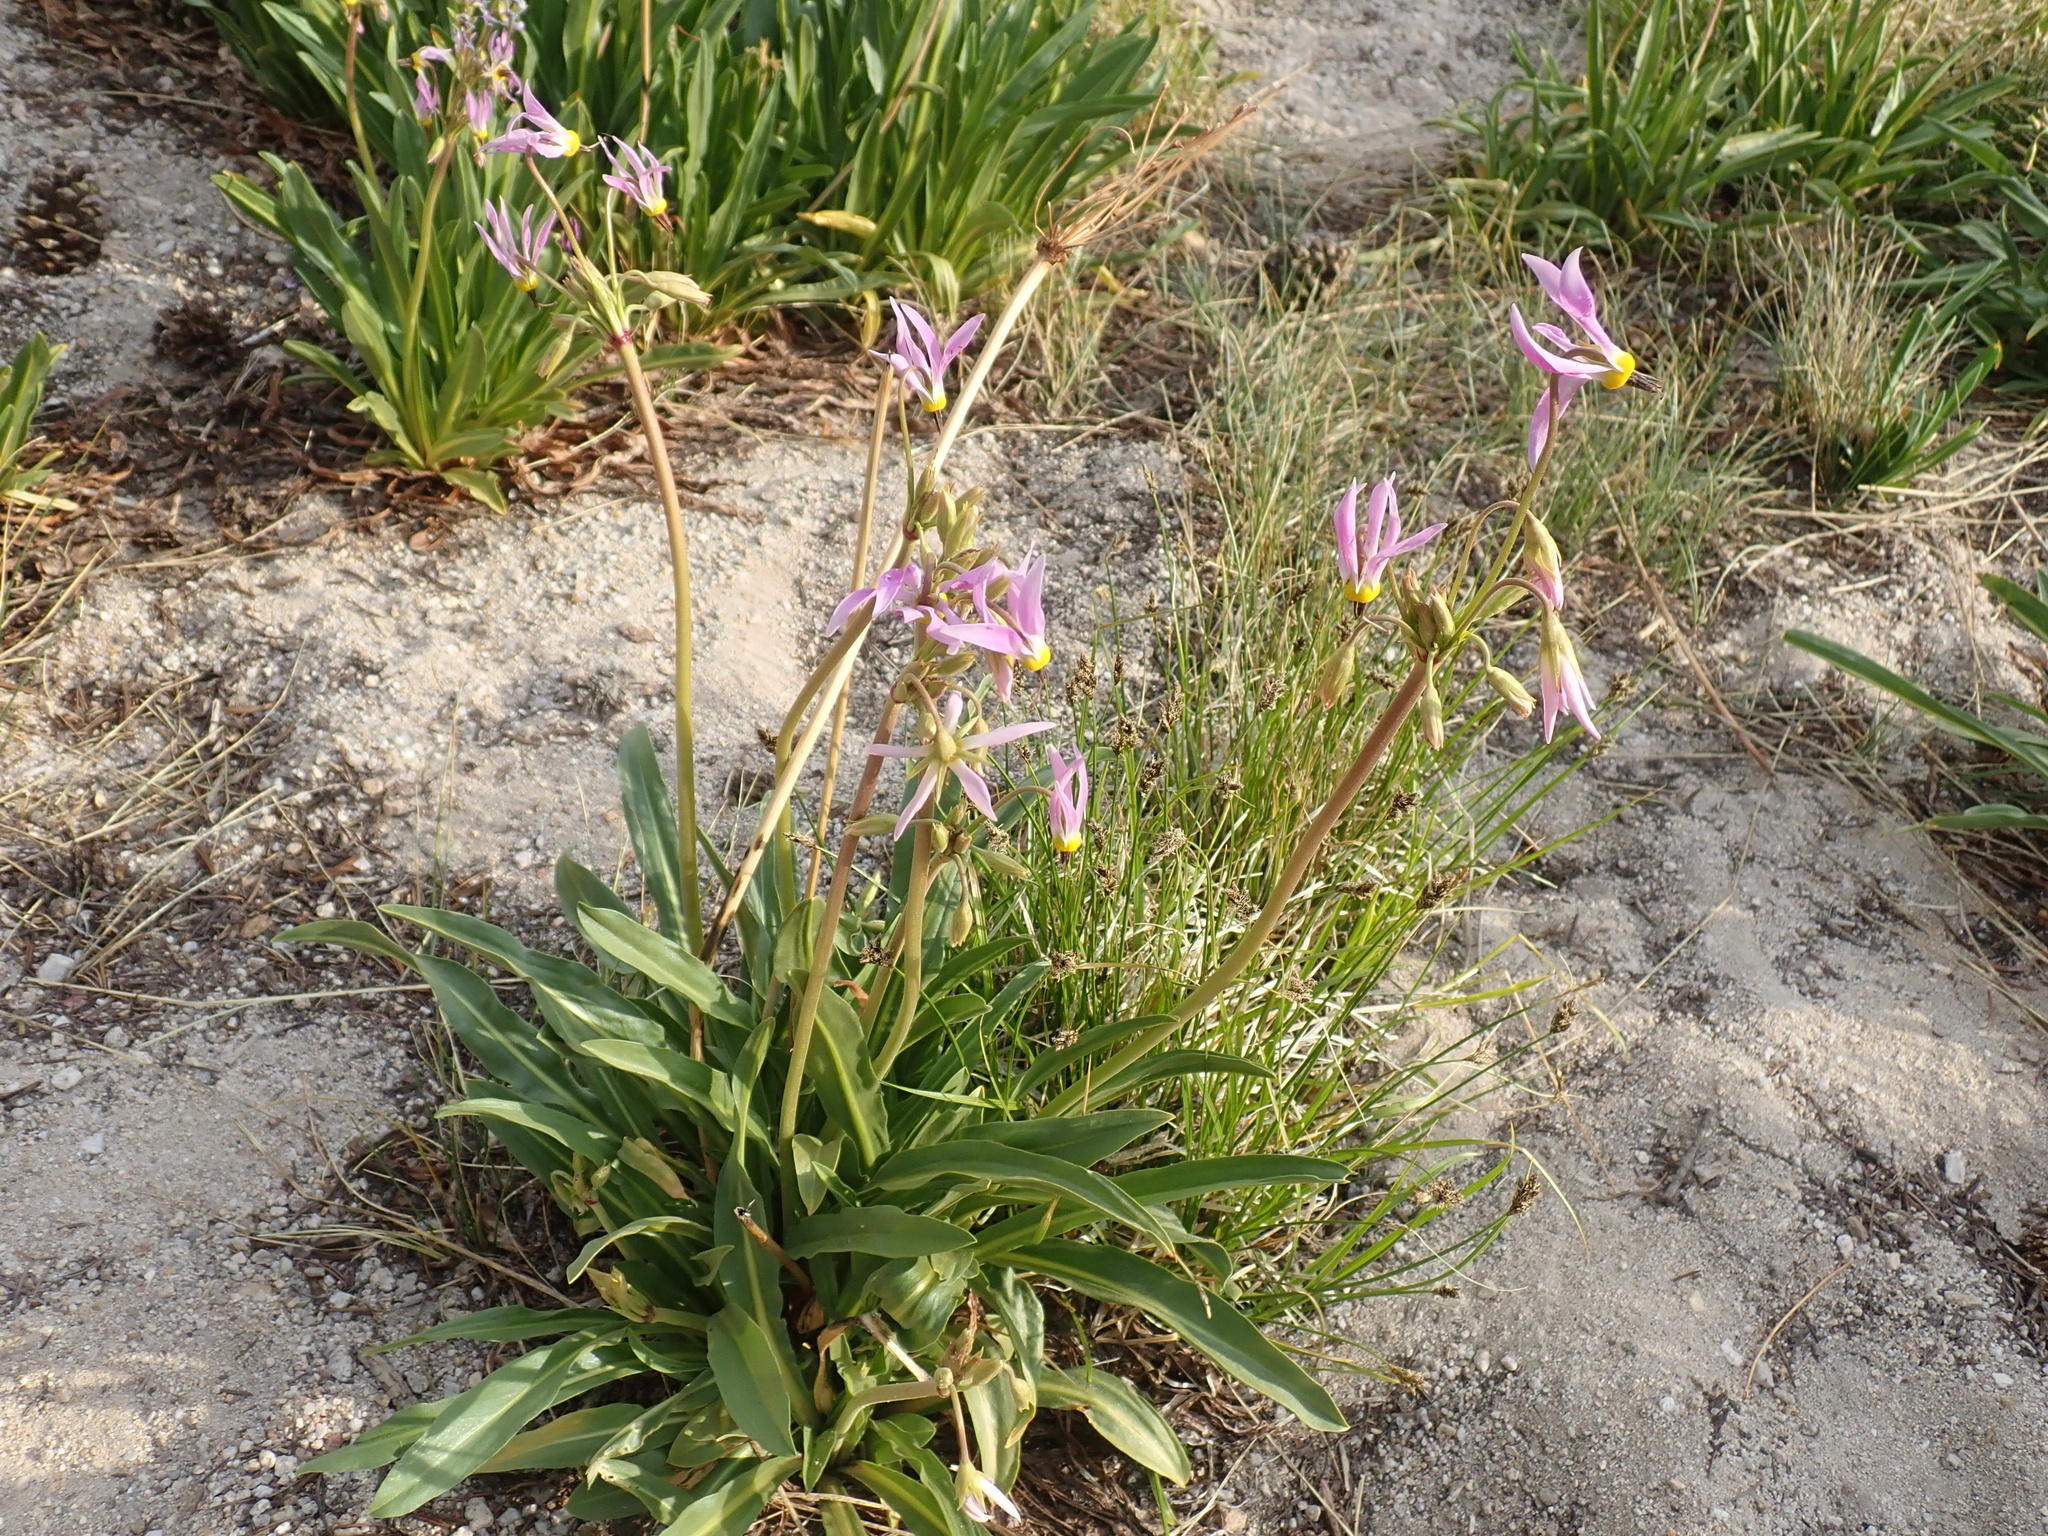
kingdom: Plantae
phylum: Tracheophyta
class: Magnoliopsida
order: Ericales
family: Primulaceae
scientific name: Primulaceae
